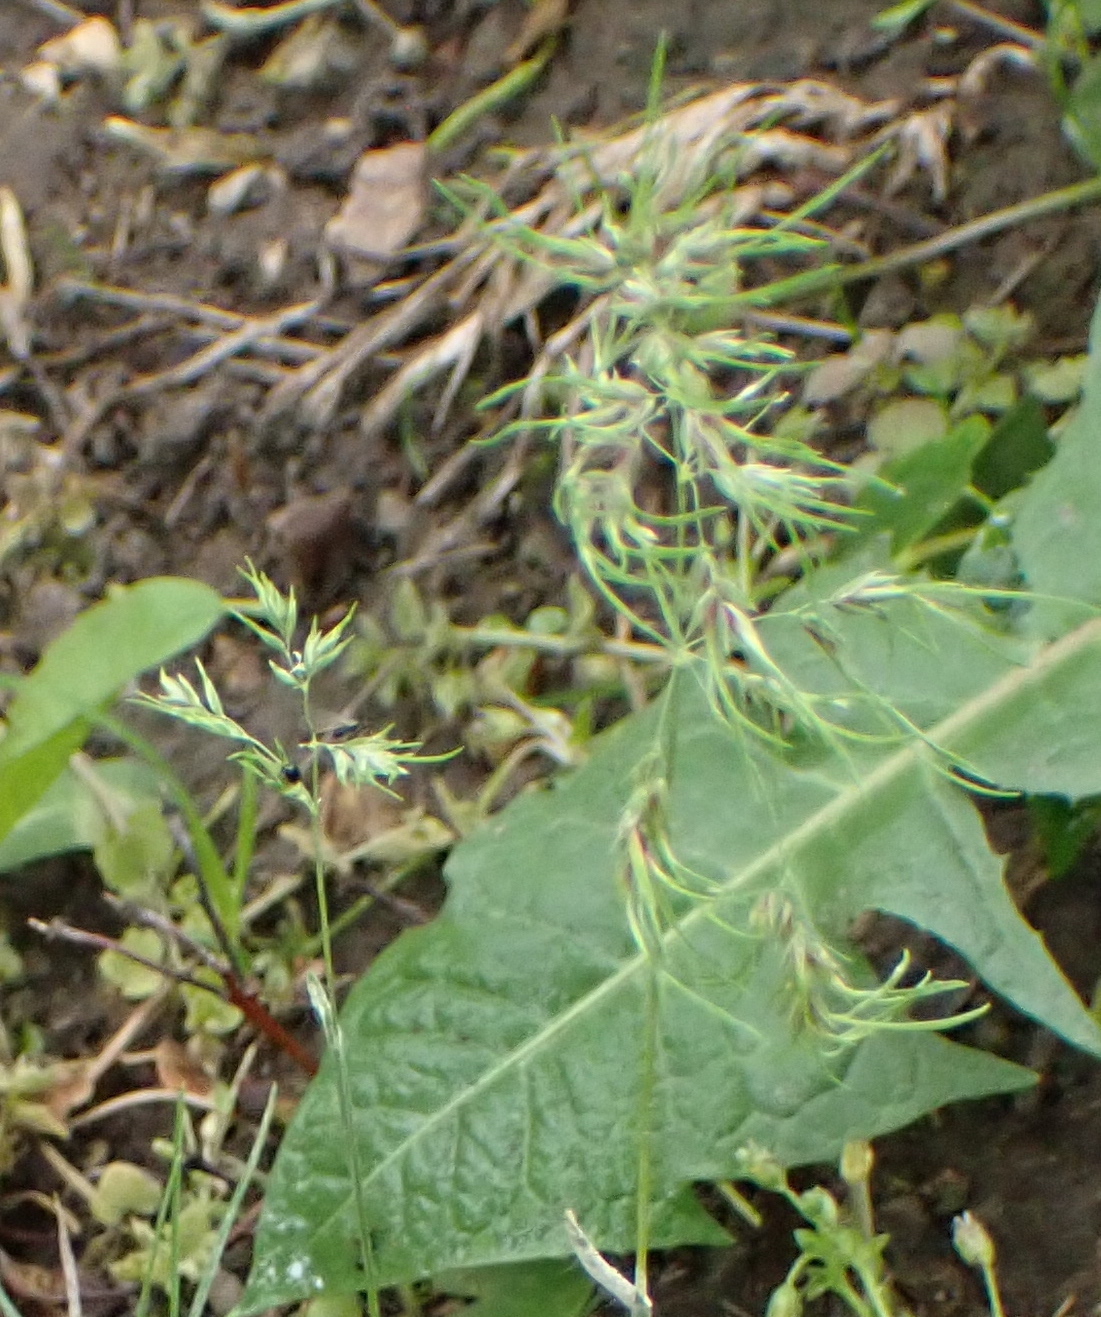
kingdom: Plantae
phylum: Tracheophyta
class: Liliopsida
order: Poales
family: Poaceae
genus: Poa
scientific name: Poa bulbosa
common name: Bulbous bluegrass
